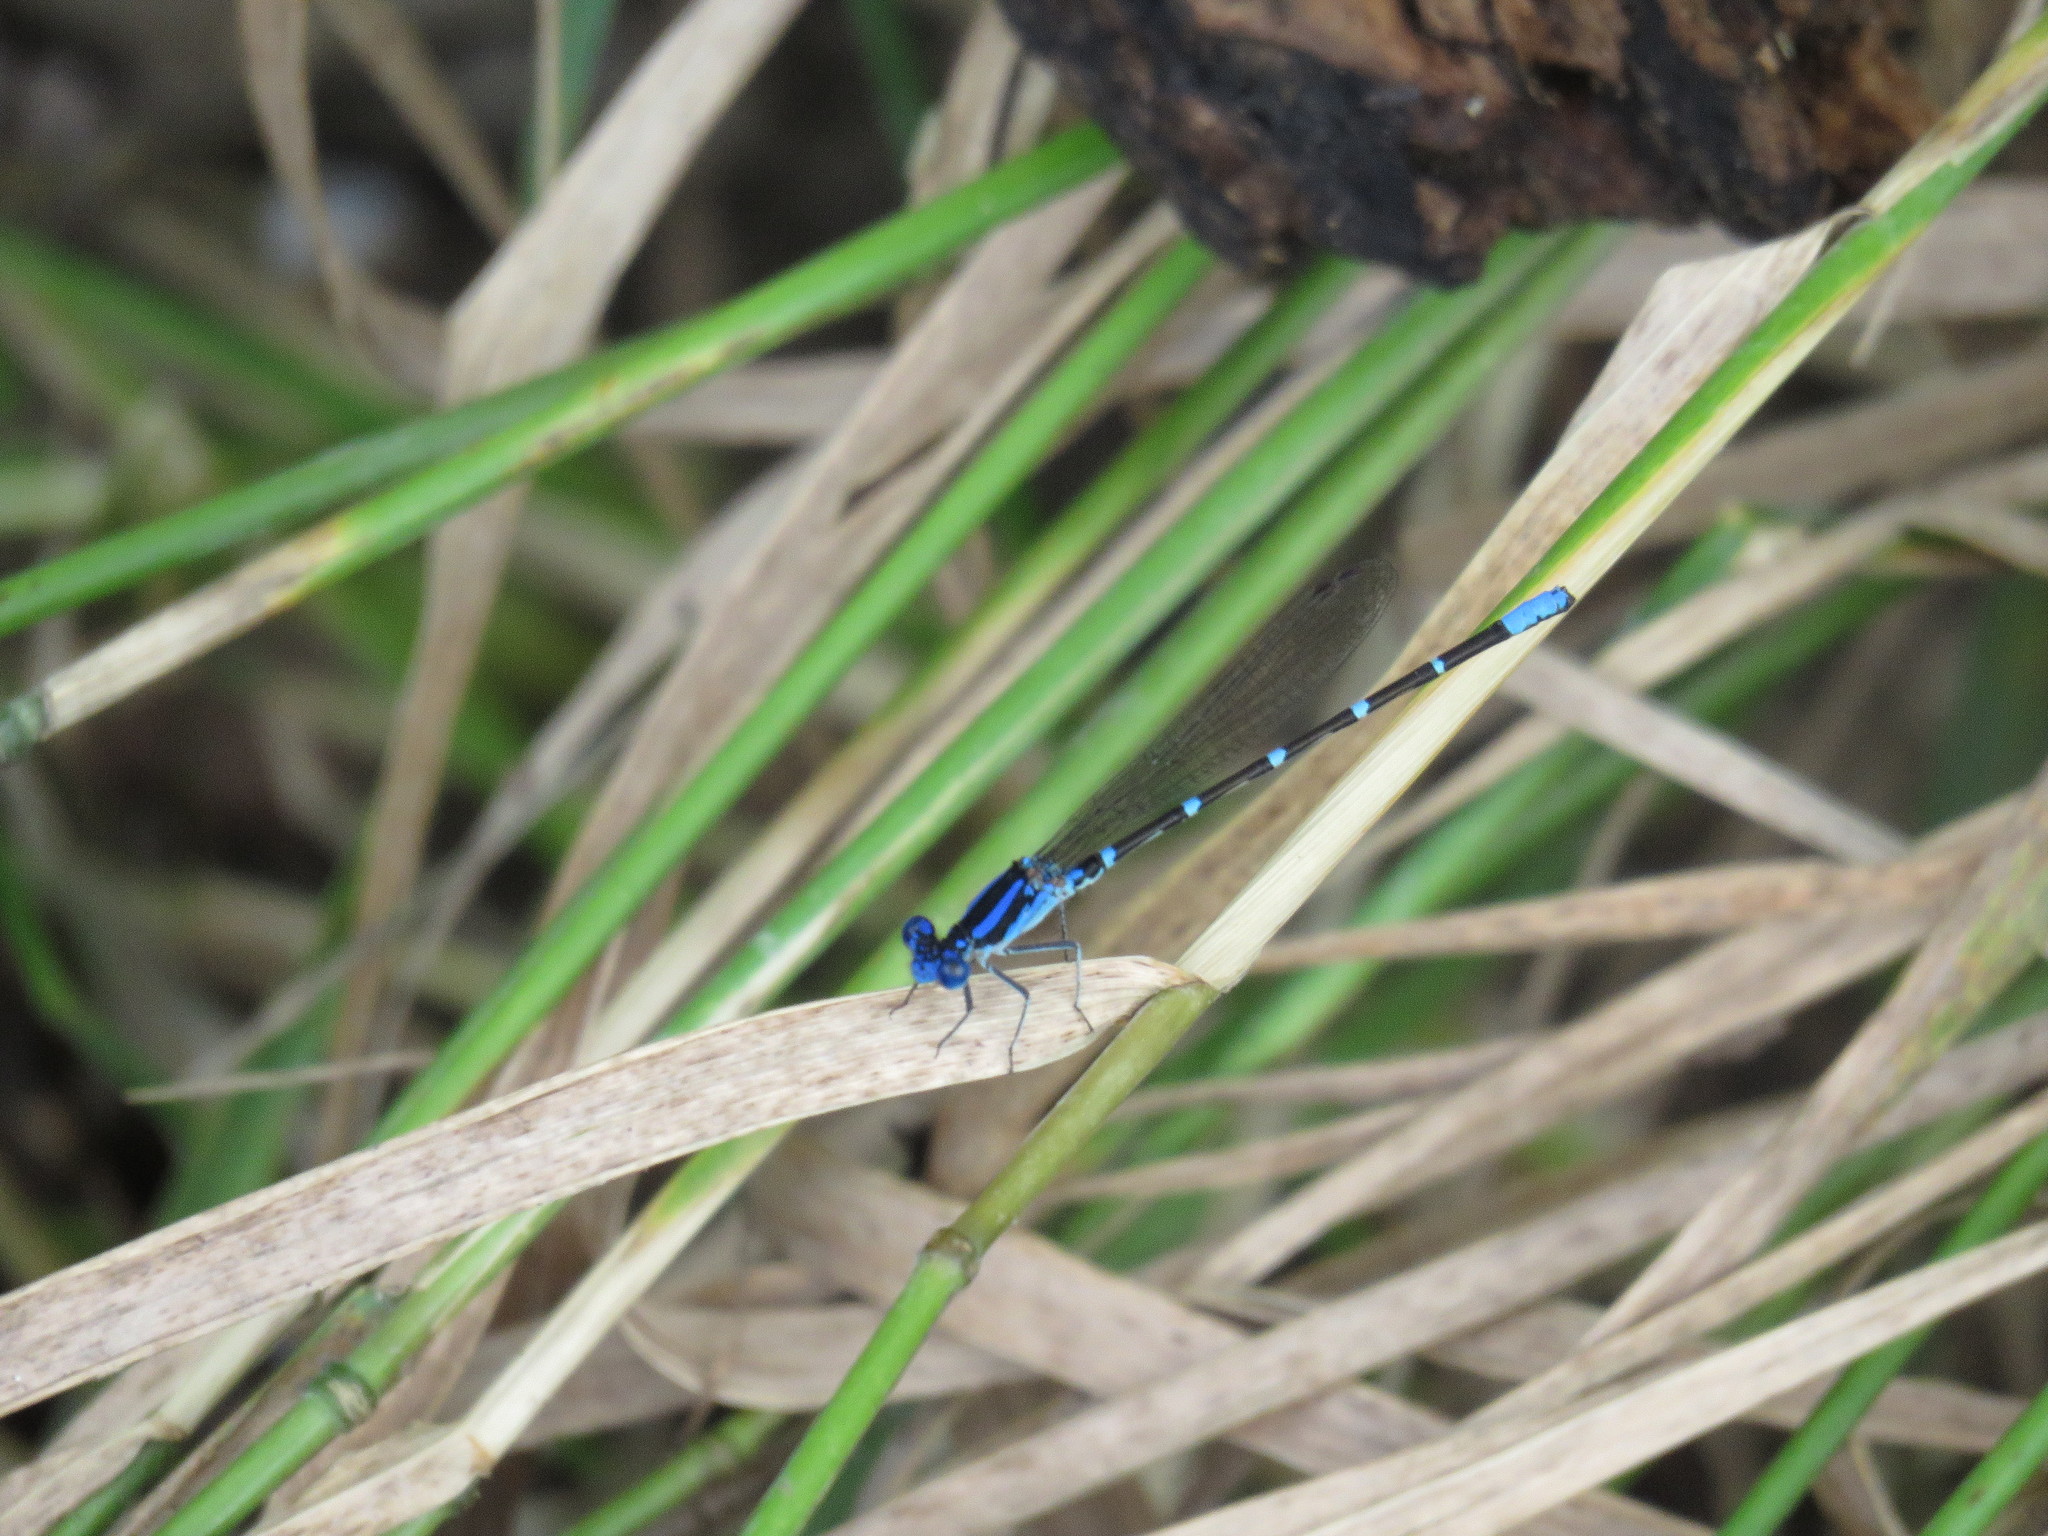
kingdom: Animalia
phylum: Arthropoda
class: Insecta
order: Odonata
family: Coenagrionidae
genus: Argia
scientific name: Argia sedula
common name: Blue-ringed dancer
